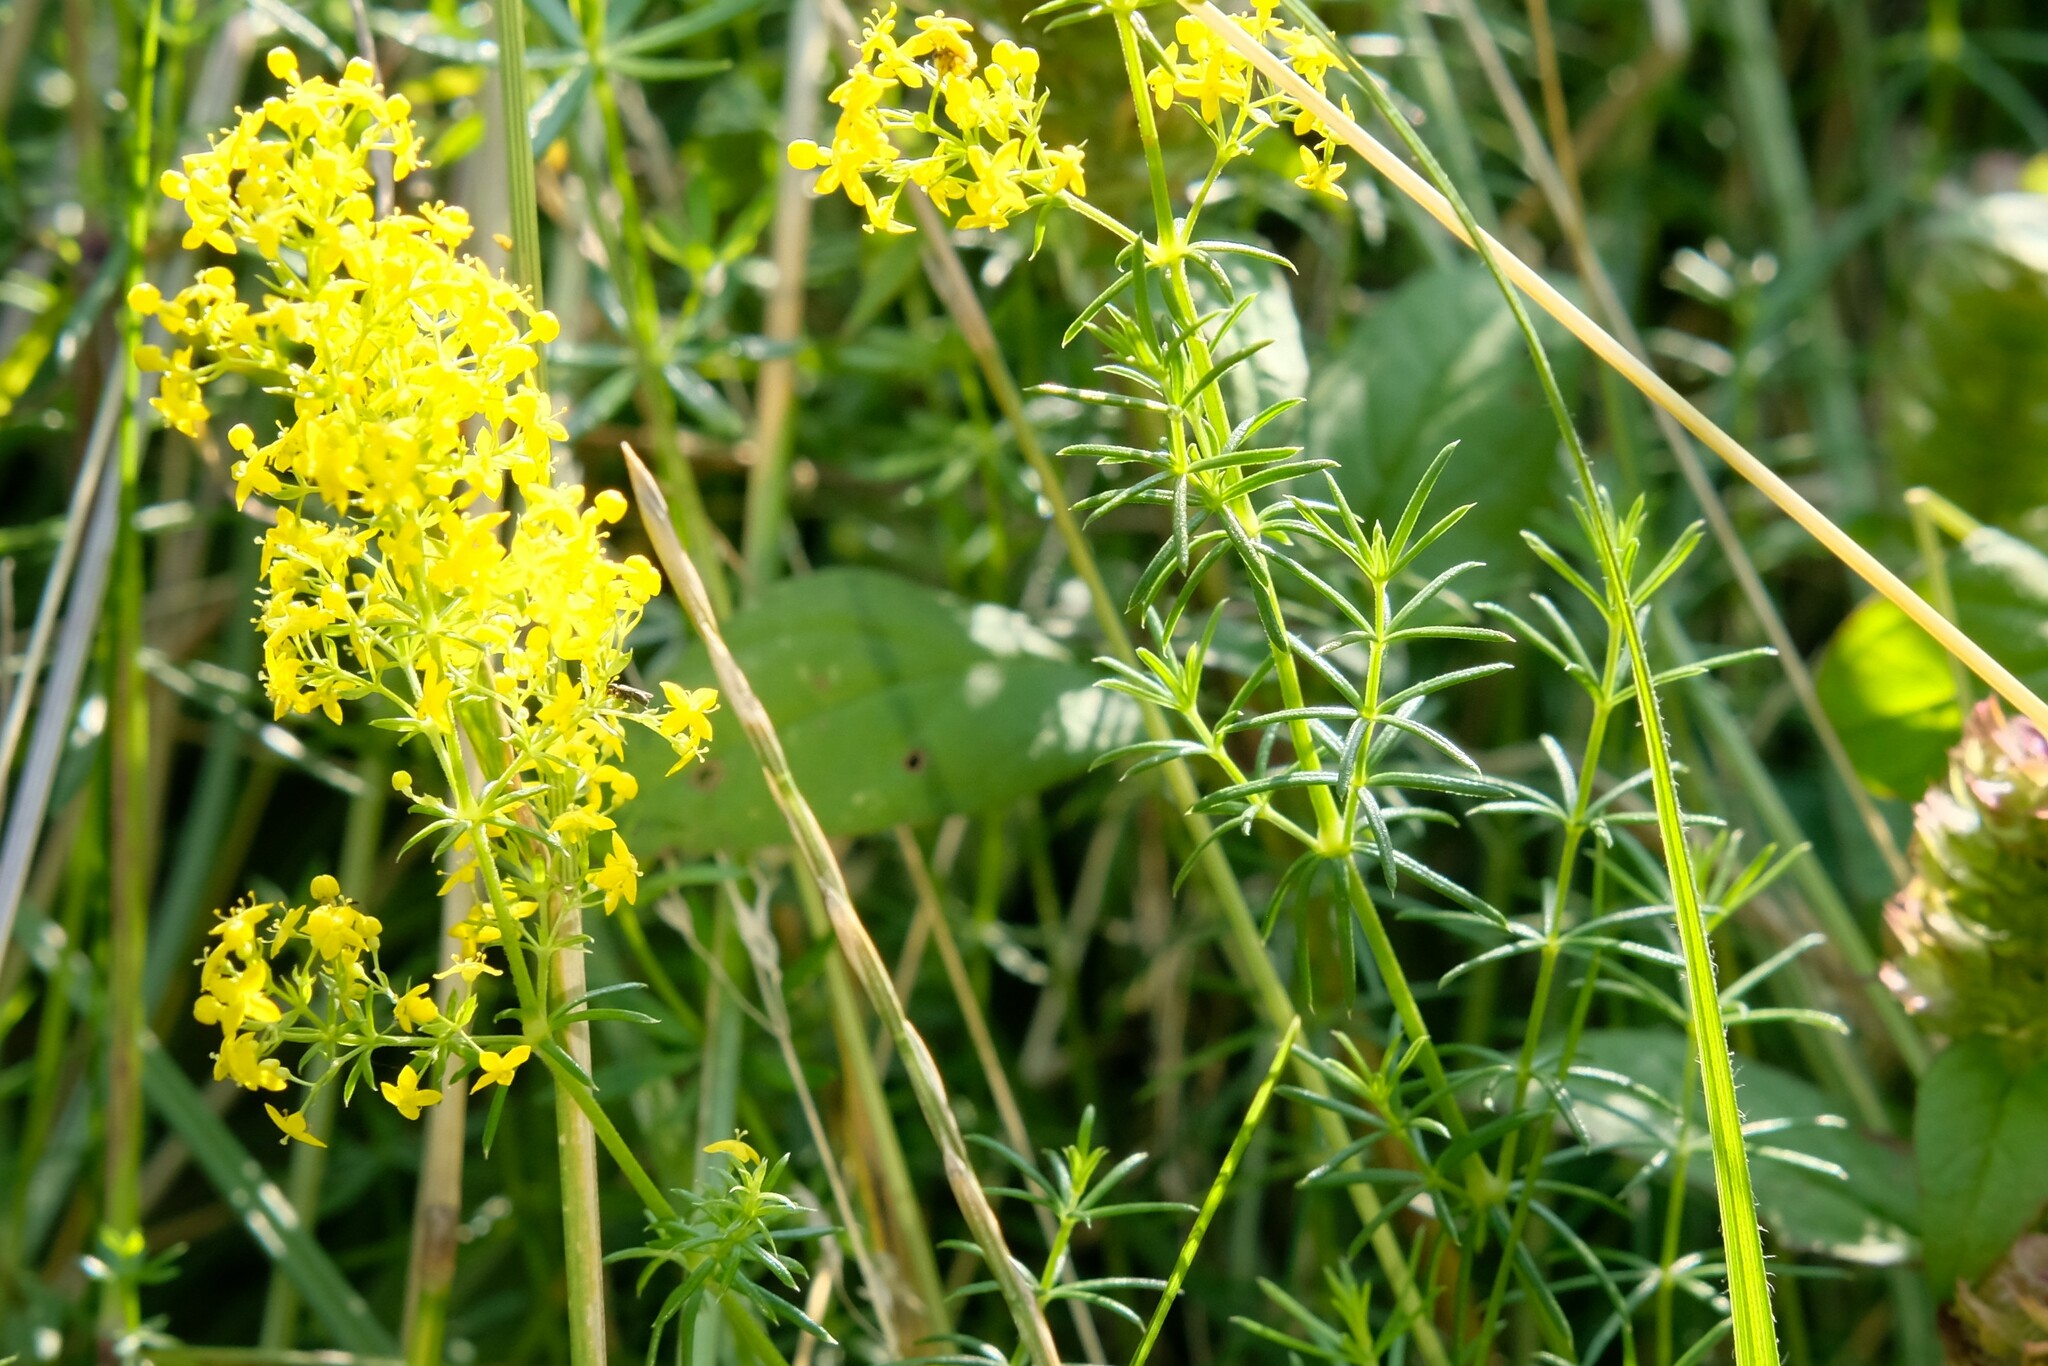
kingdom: Plantae
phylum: Tracheophyta
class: Magnoliopsida
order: Gentianales
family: Rubiaceae
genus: Galium
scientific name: Galium verum
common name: Lady's bedstraw
